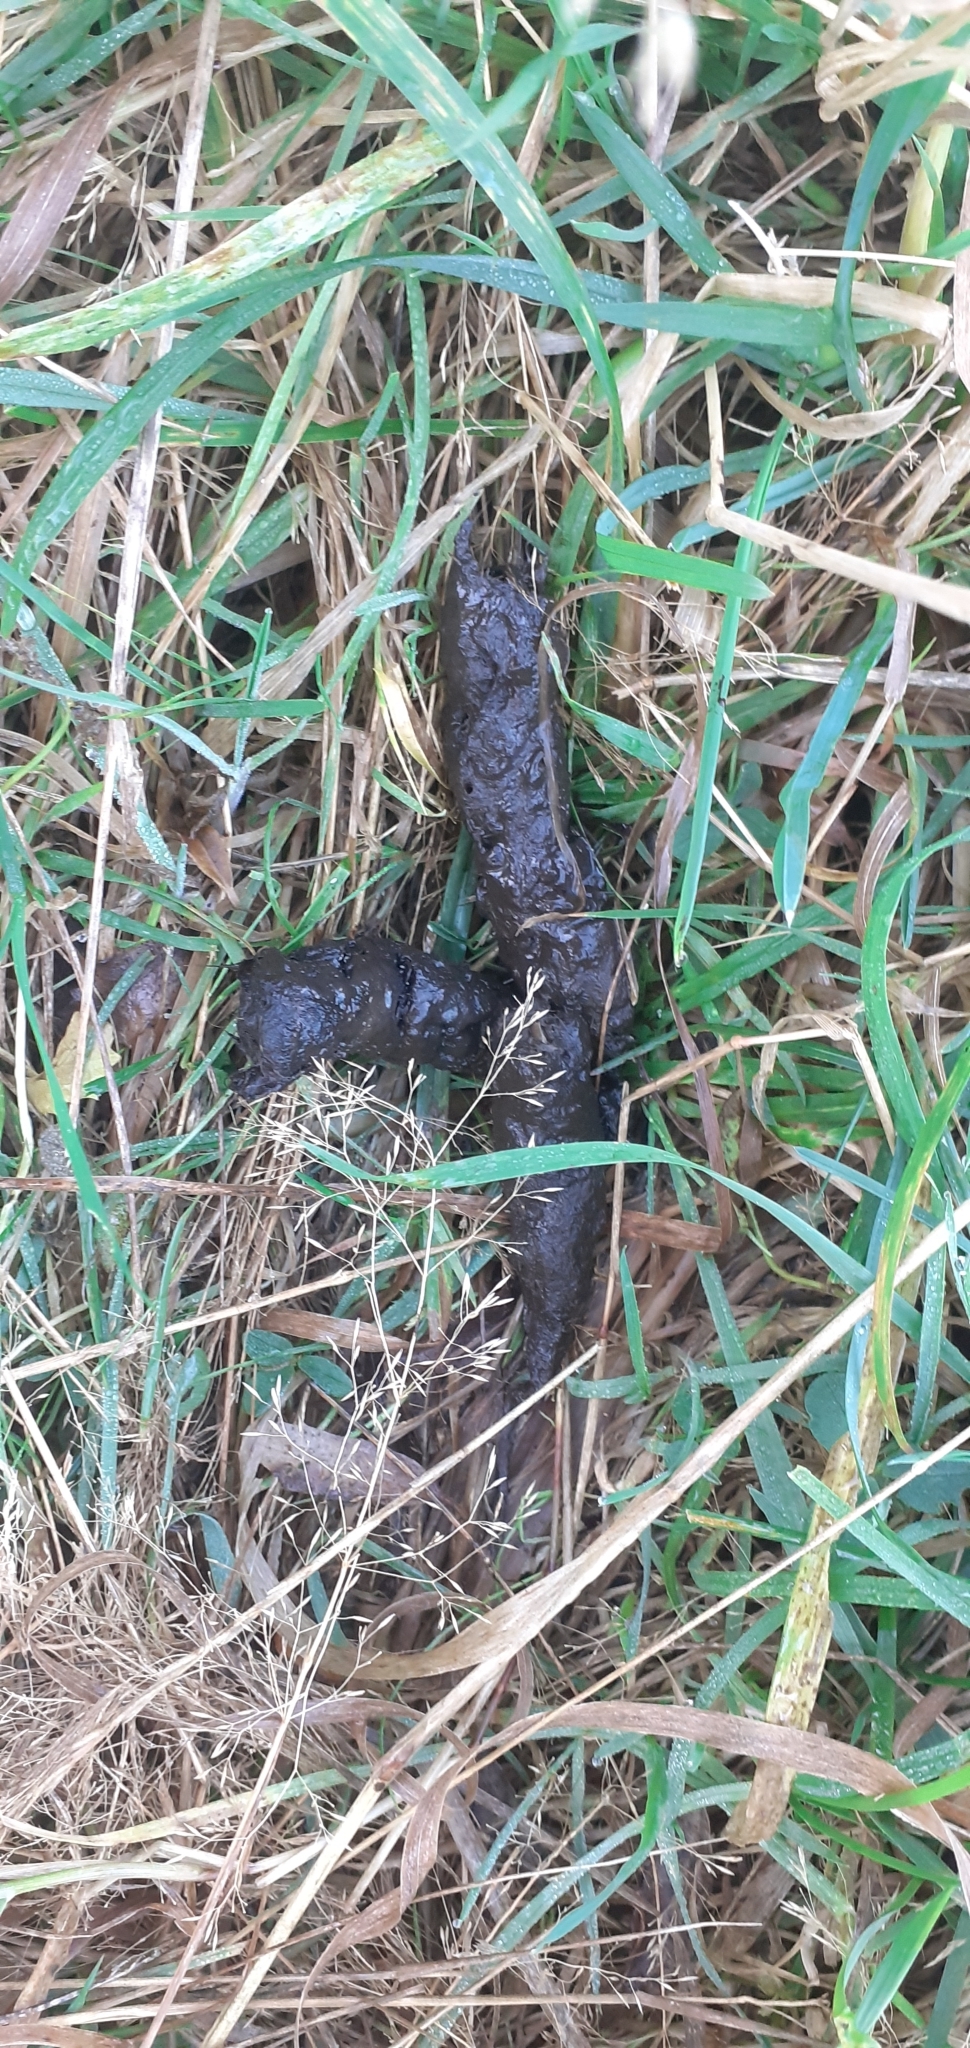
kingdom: Animalia
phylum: Chordata
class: Mammalia
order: Carnivora
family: Felidae
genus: Felis
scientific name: Felis catus
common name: Domestic cat
